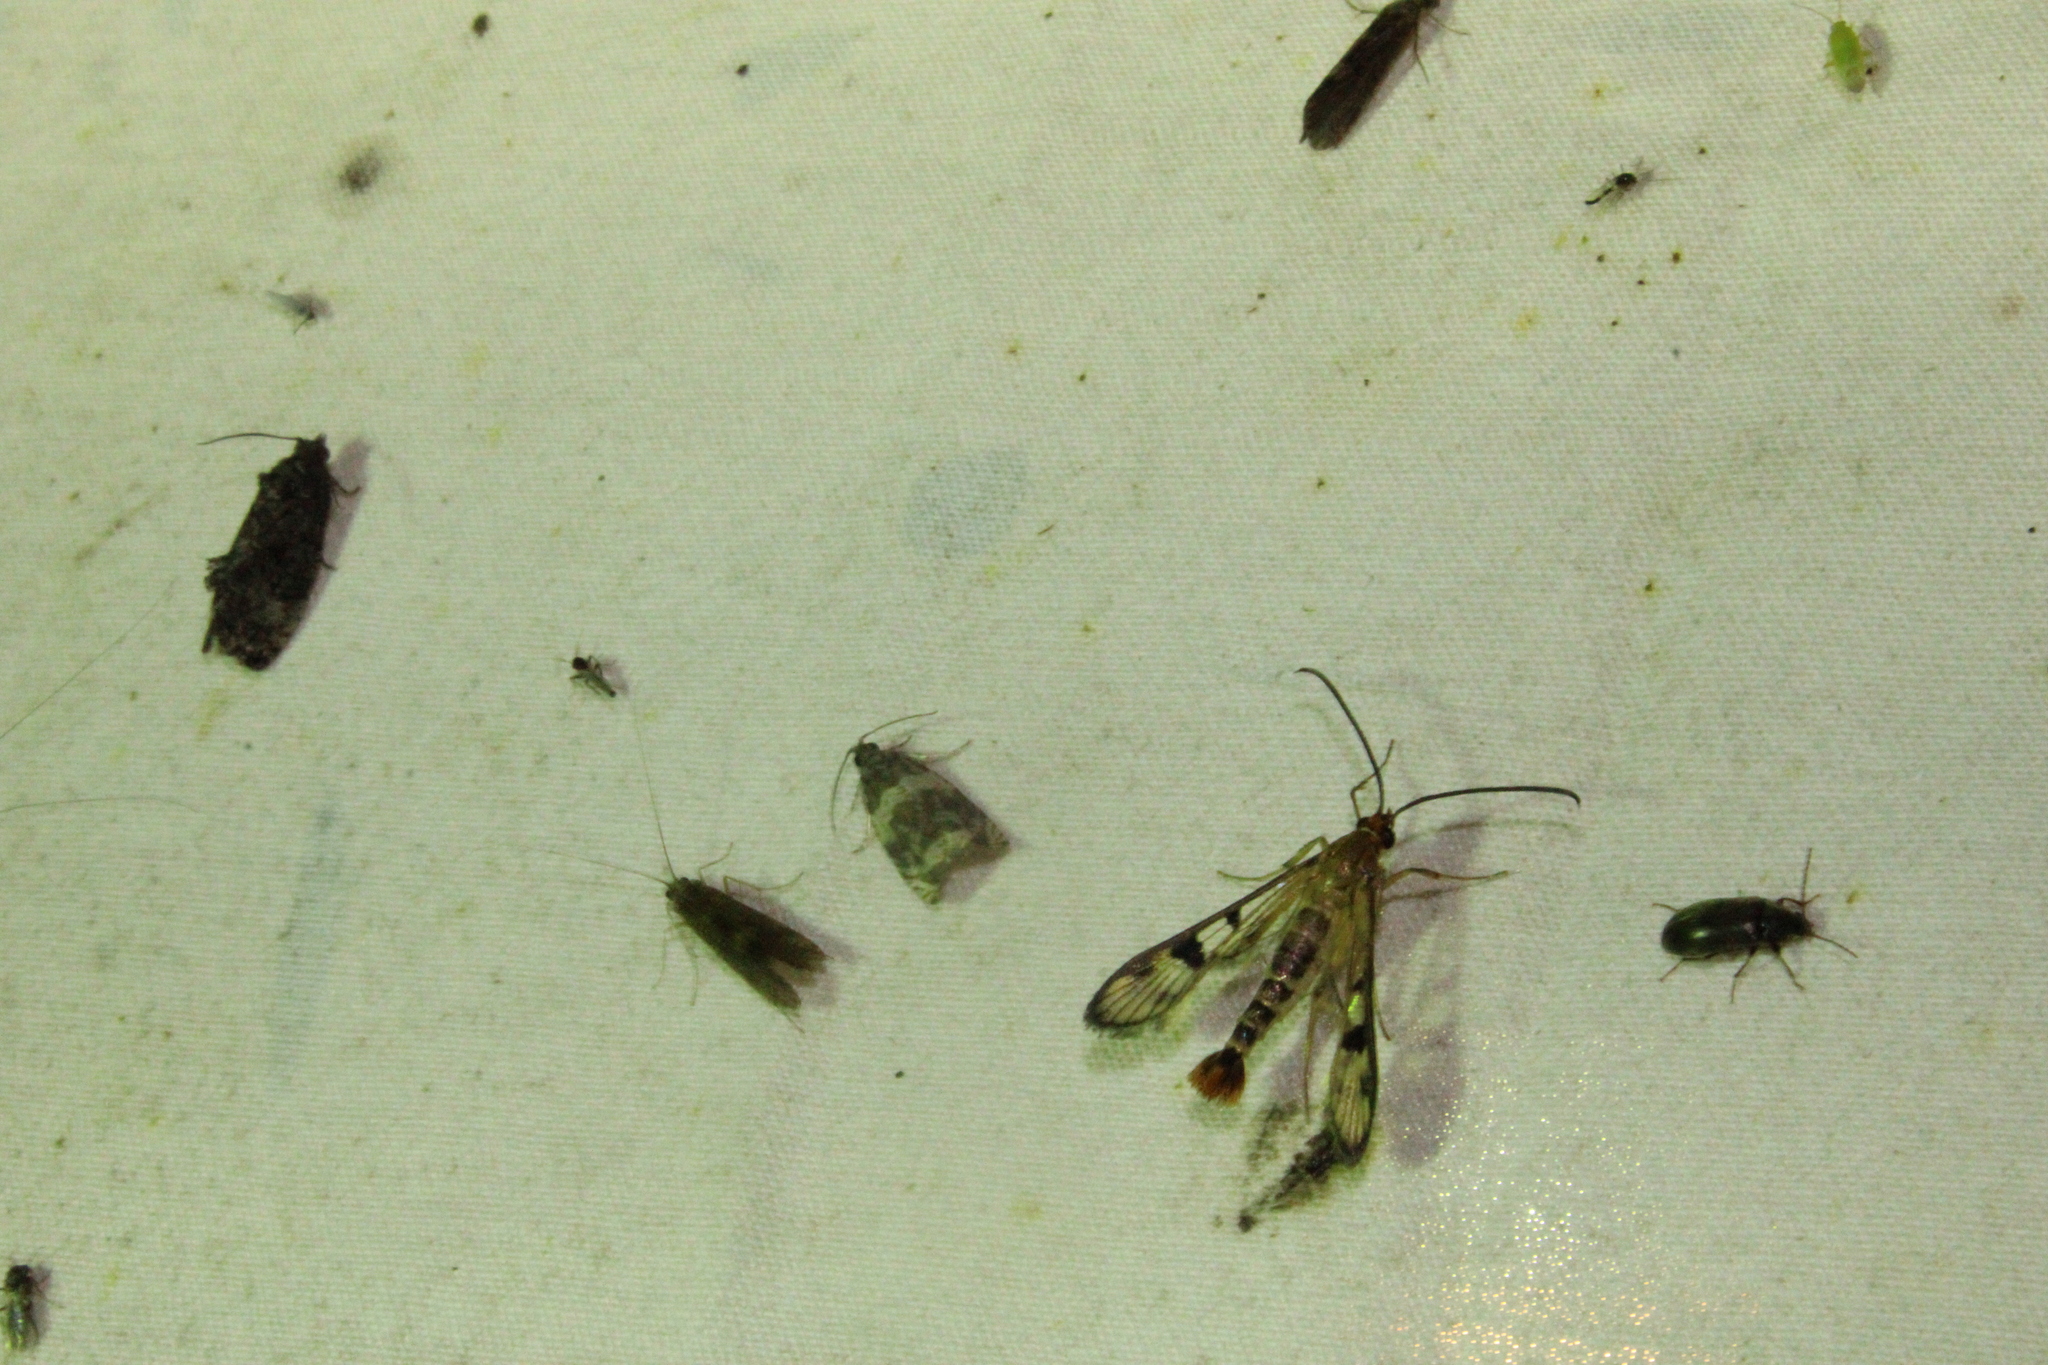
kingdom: Animalia
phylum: Arthropoda
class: Insecta
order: Lepidoptera
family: Sesiidae
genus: Synanthedon
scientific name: Synanthedon acerni
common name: Maple callus borer moth
